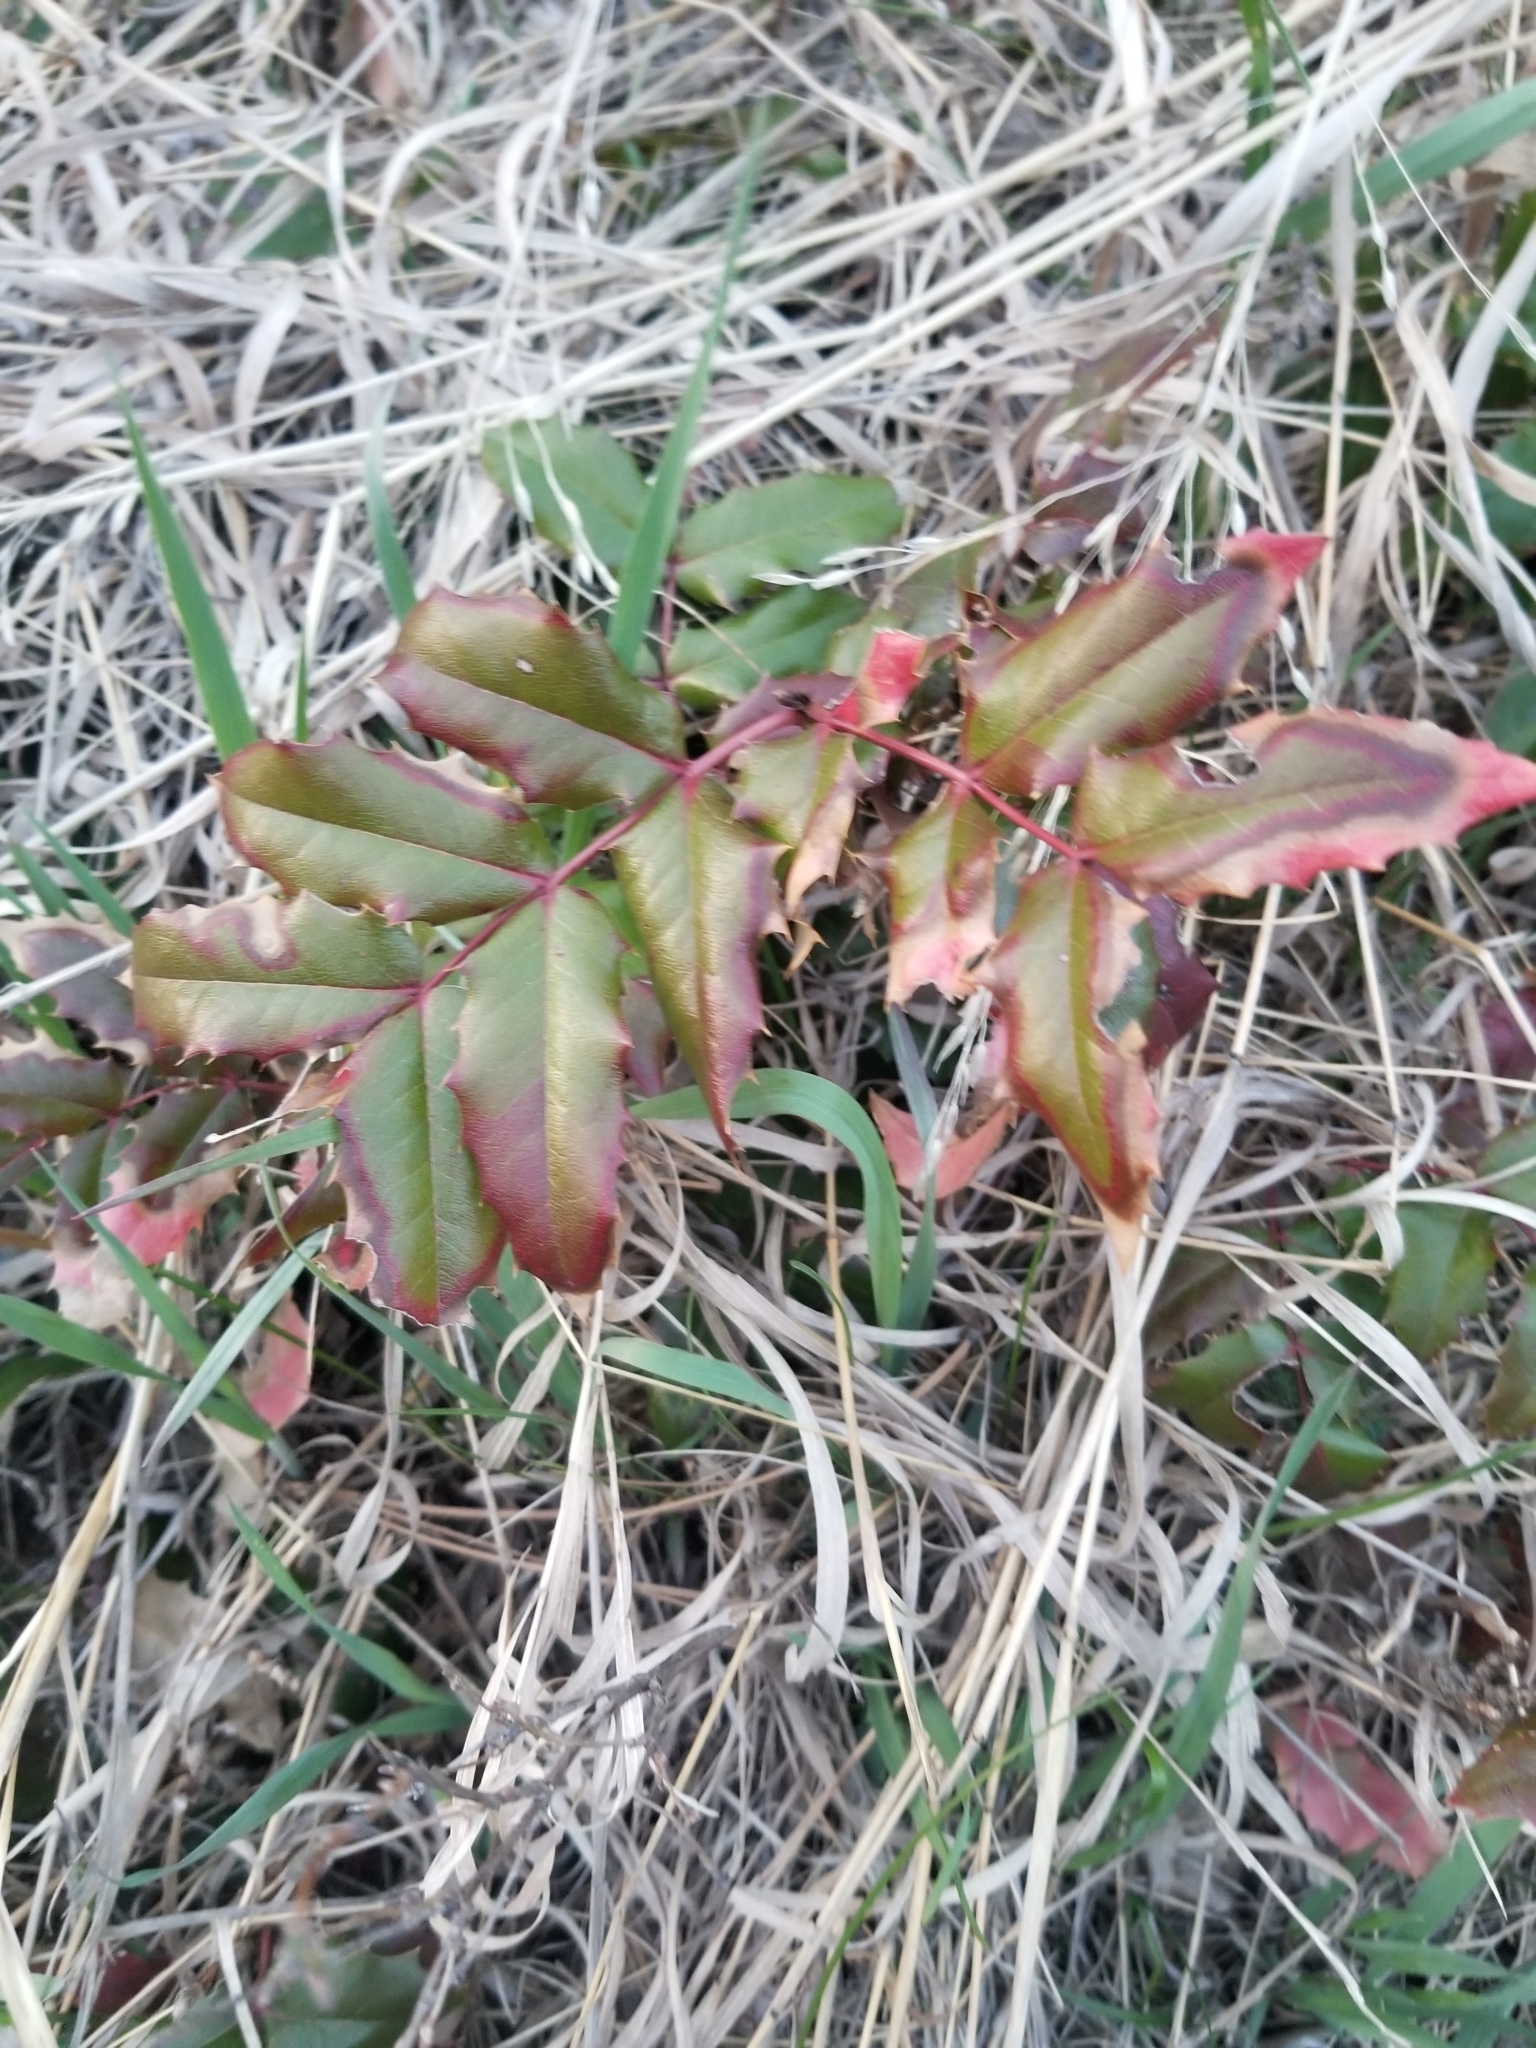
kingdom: Plantae
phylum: Tracheophyta
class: Magnoliopsida
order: Ranunculales
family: Berberidaceae
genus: Mahonia
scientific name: Mahonia aquifolium
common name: Oregon-grape
